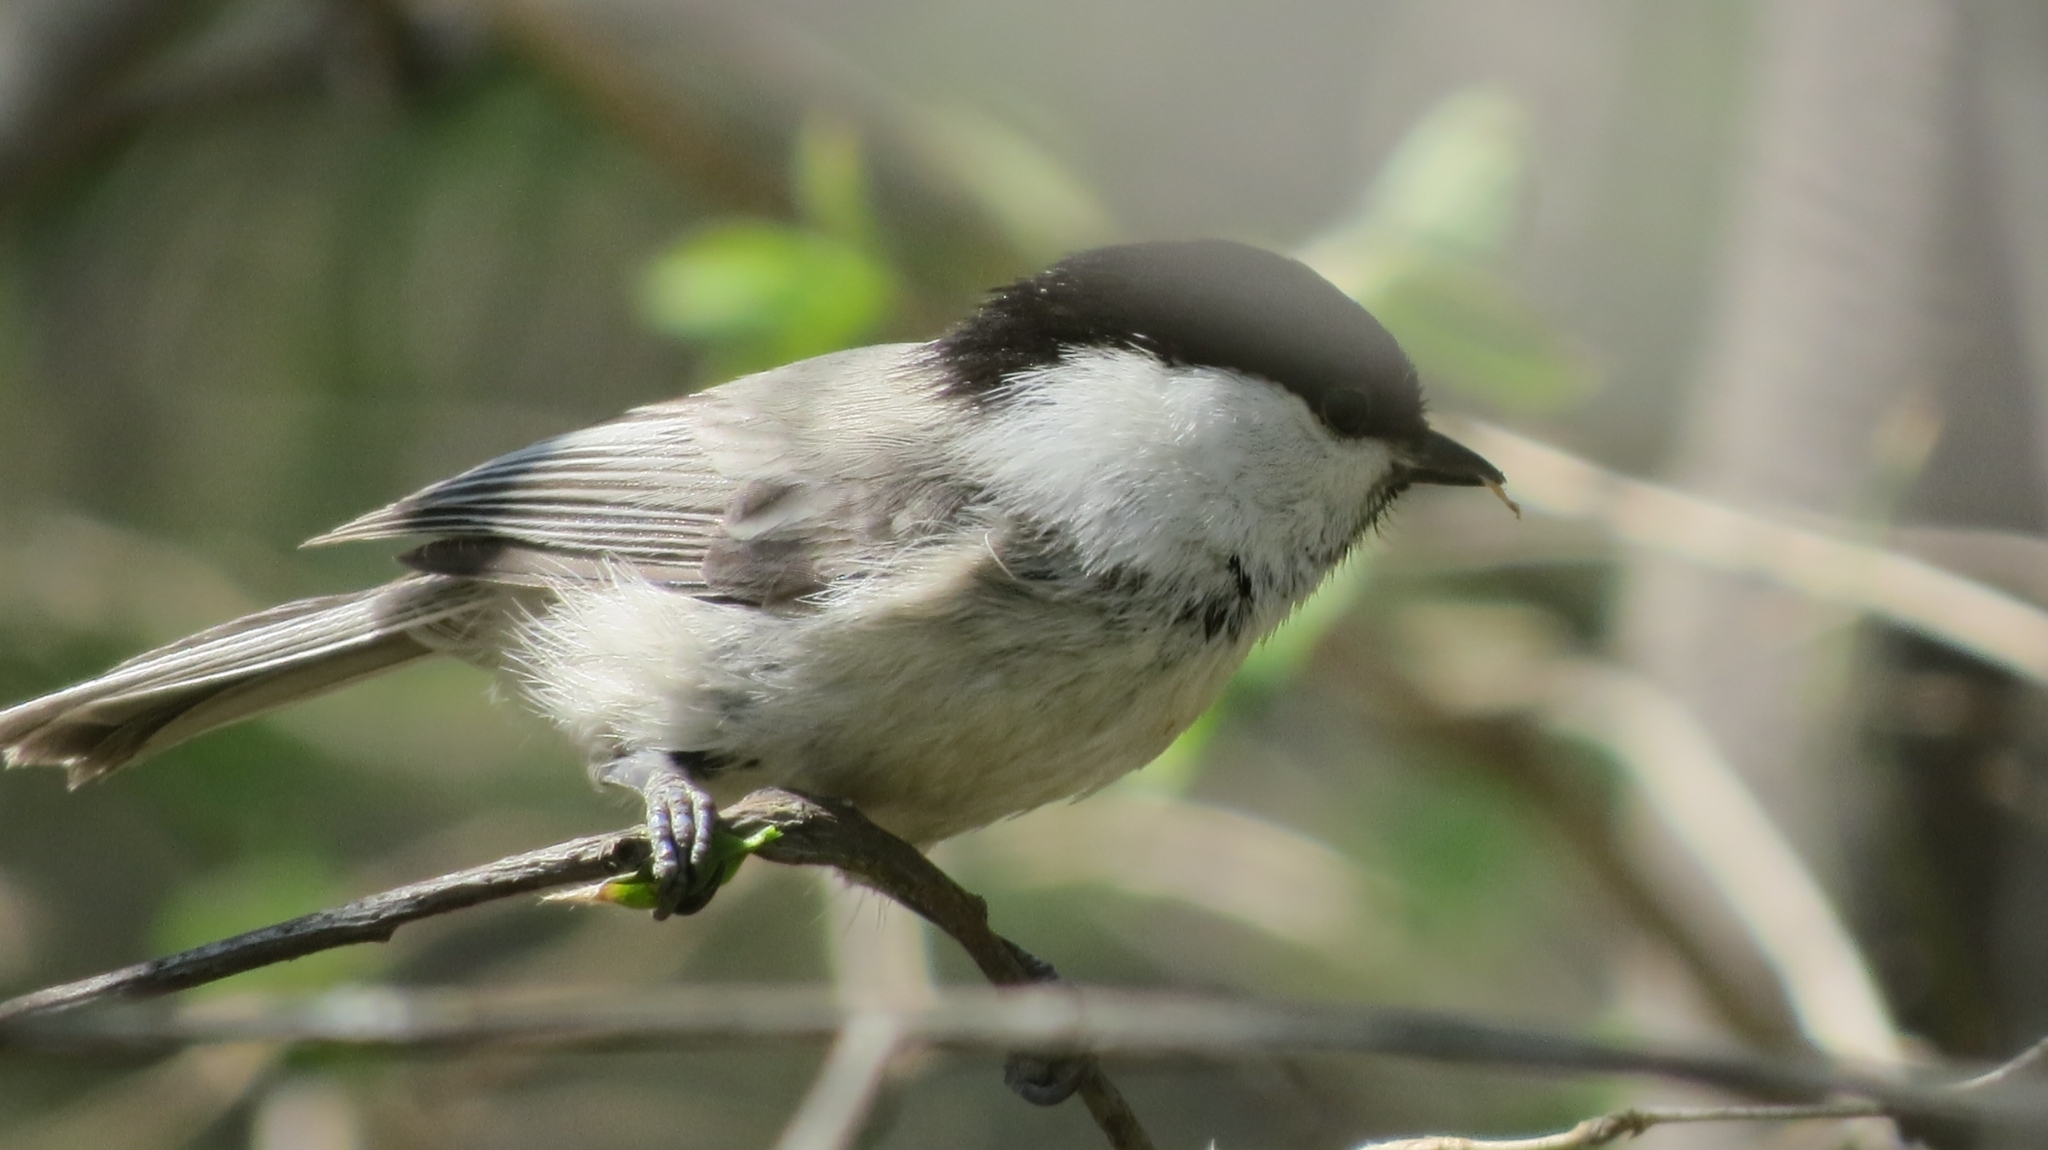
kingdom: Animalia
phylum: Chordata
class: Aves
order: Passeriformes
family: Paridae
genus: Poecile
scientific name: Poecile montanus
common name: Willow tit
